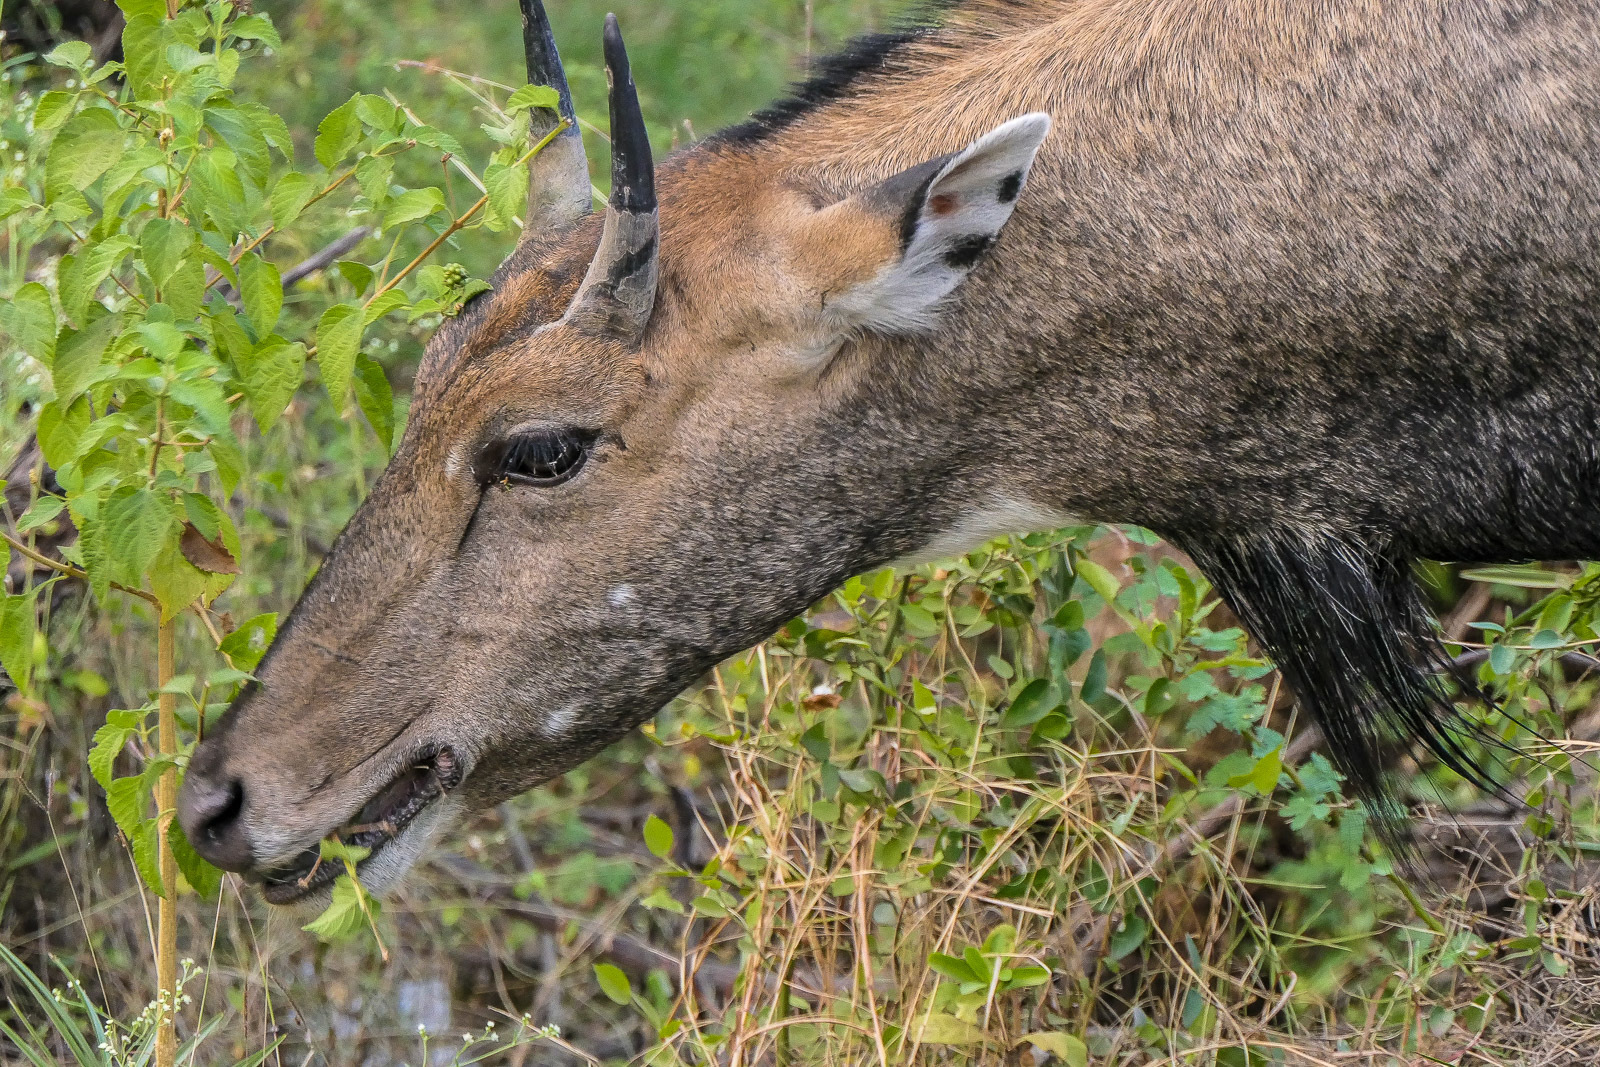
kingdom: Animalia
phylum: Chordata
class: Mammalia
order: Artiodactyla
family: Bovidae
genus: Boselaphus
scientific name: Boselaphus tragocamelus
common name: Nilgai
